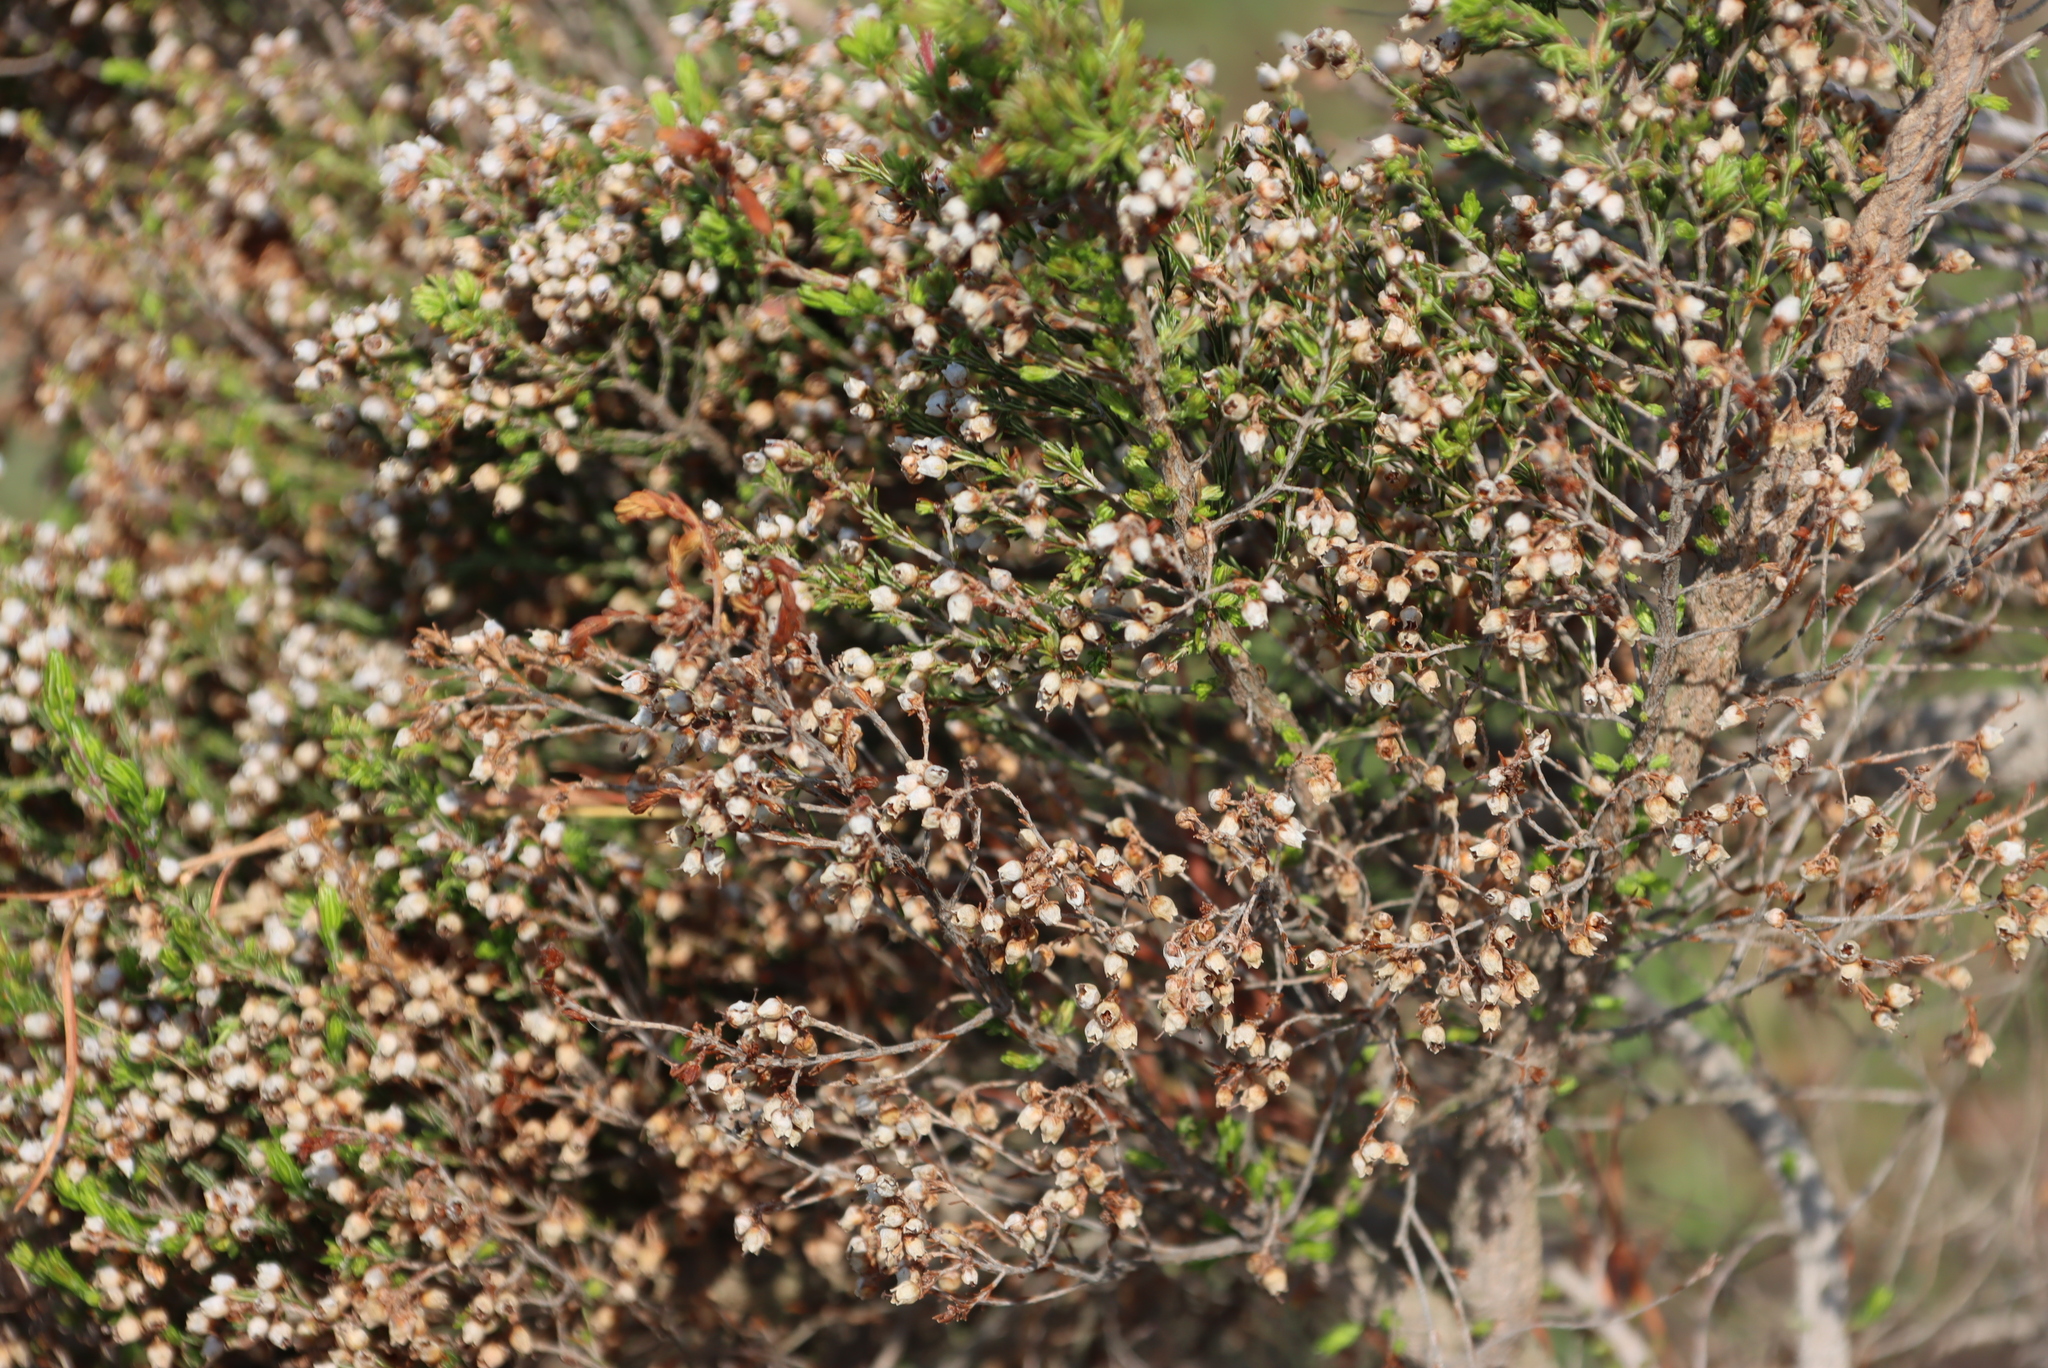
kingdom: Plantae
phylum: Tracheophyta
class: Magnoliopsida
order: Ericales
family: Ericaceae
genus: Erica
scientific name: Erica drakensbergensis
